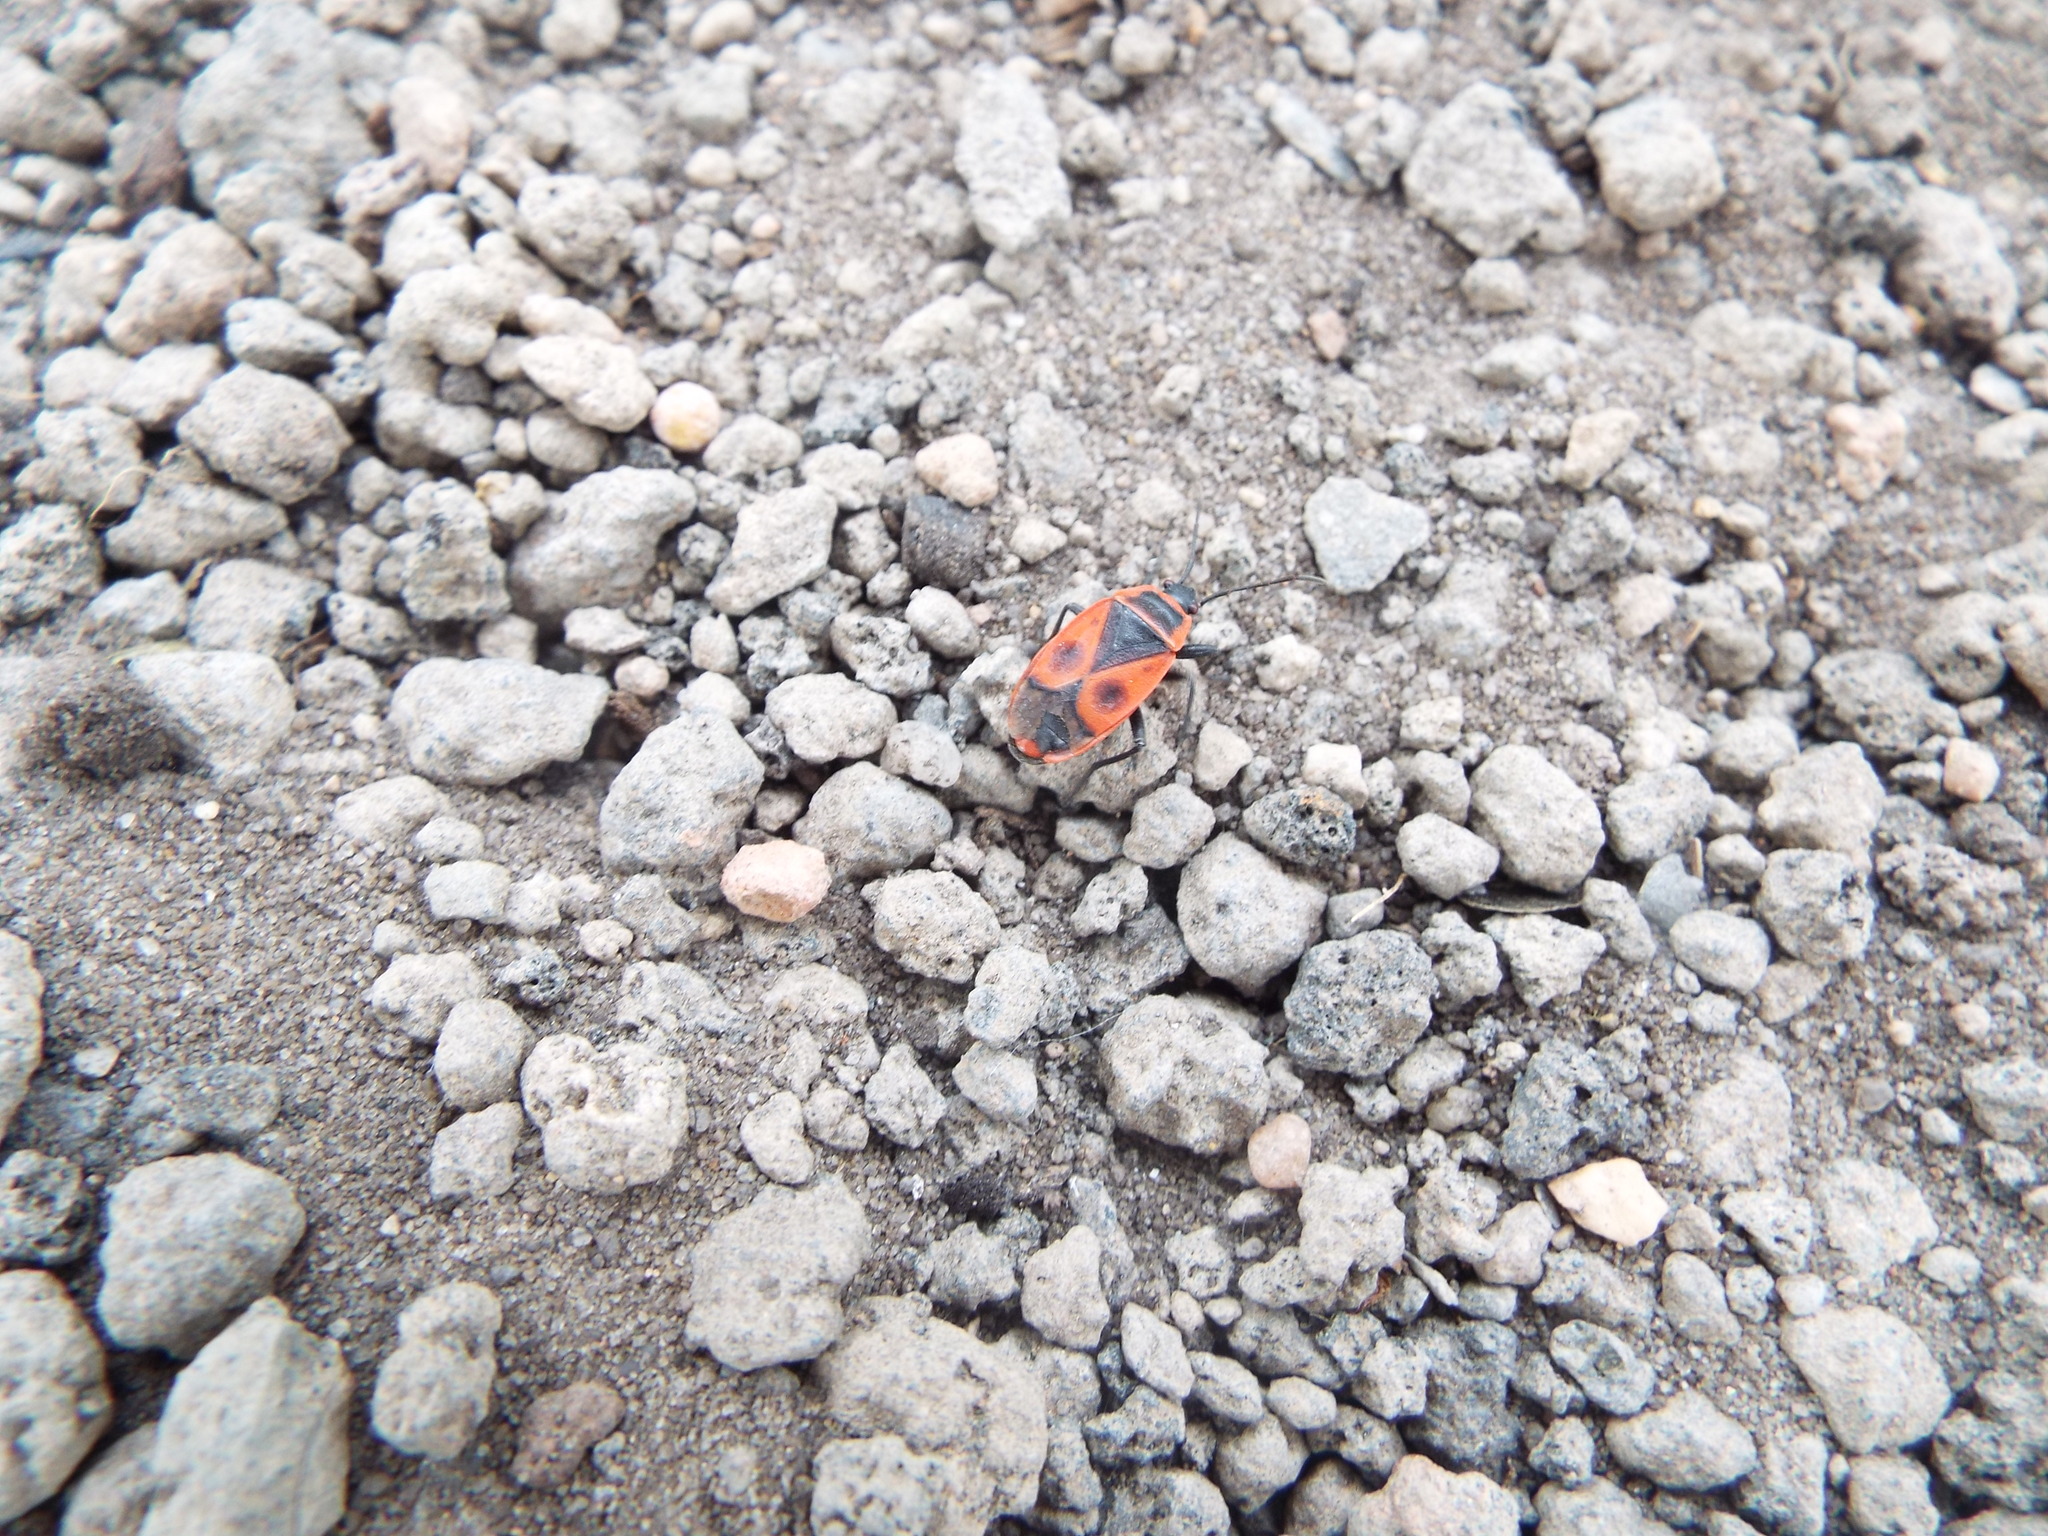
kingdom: Animalia
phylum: Arthropoda
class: Insecta
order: Hemiptera
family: Pyrrhocoridae
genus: Pyrrhocoris
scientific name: Pyrrhocoris apterus
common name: Firebug
